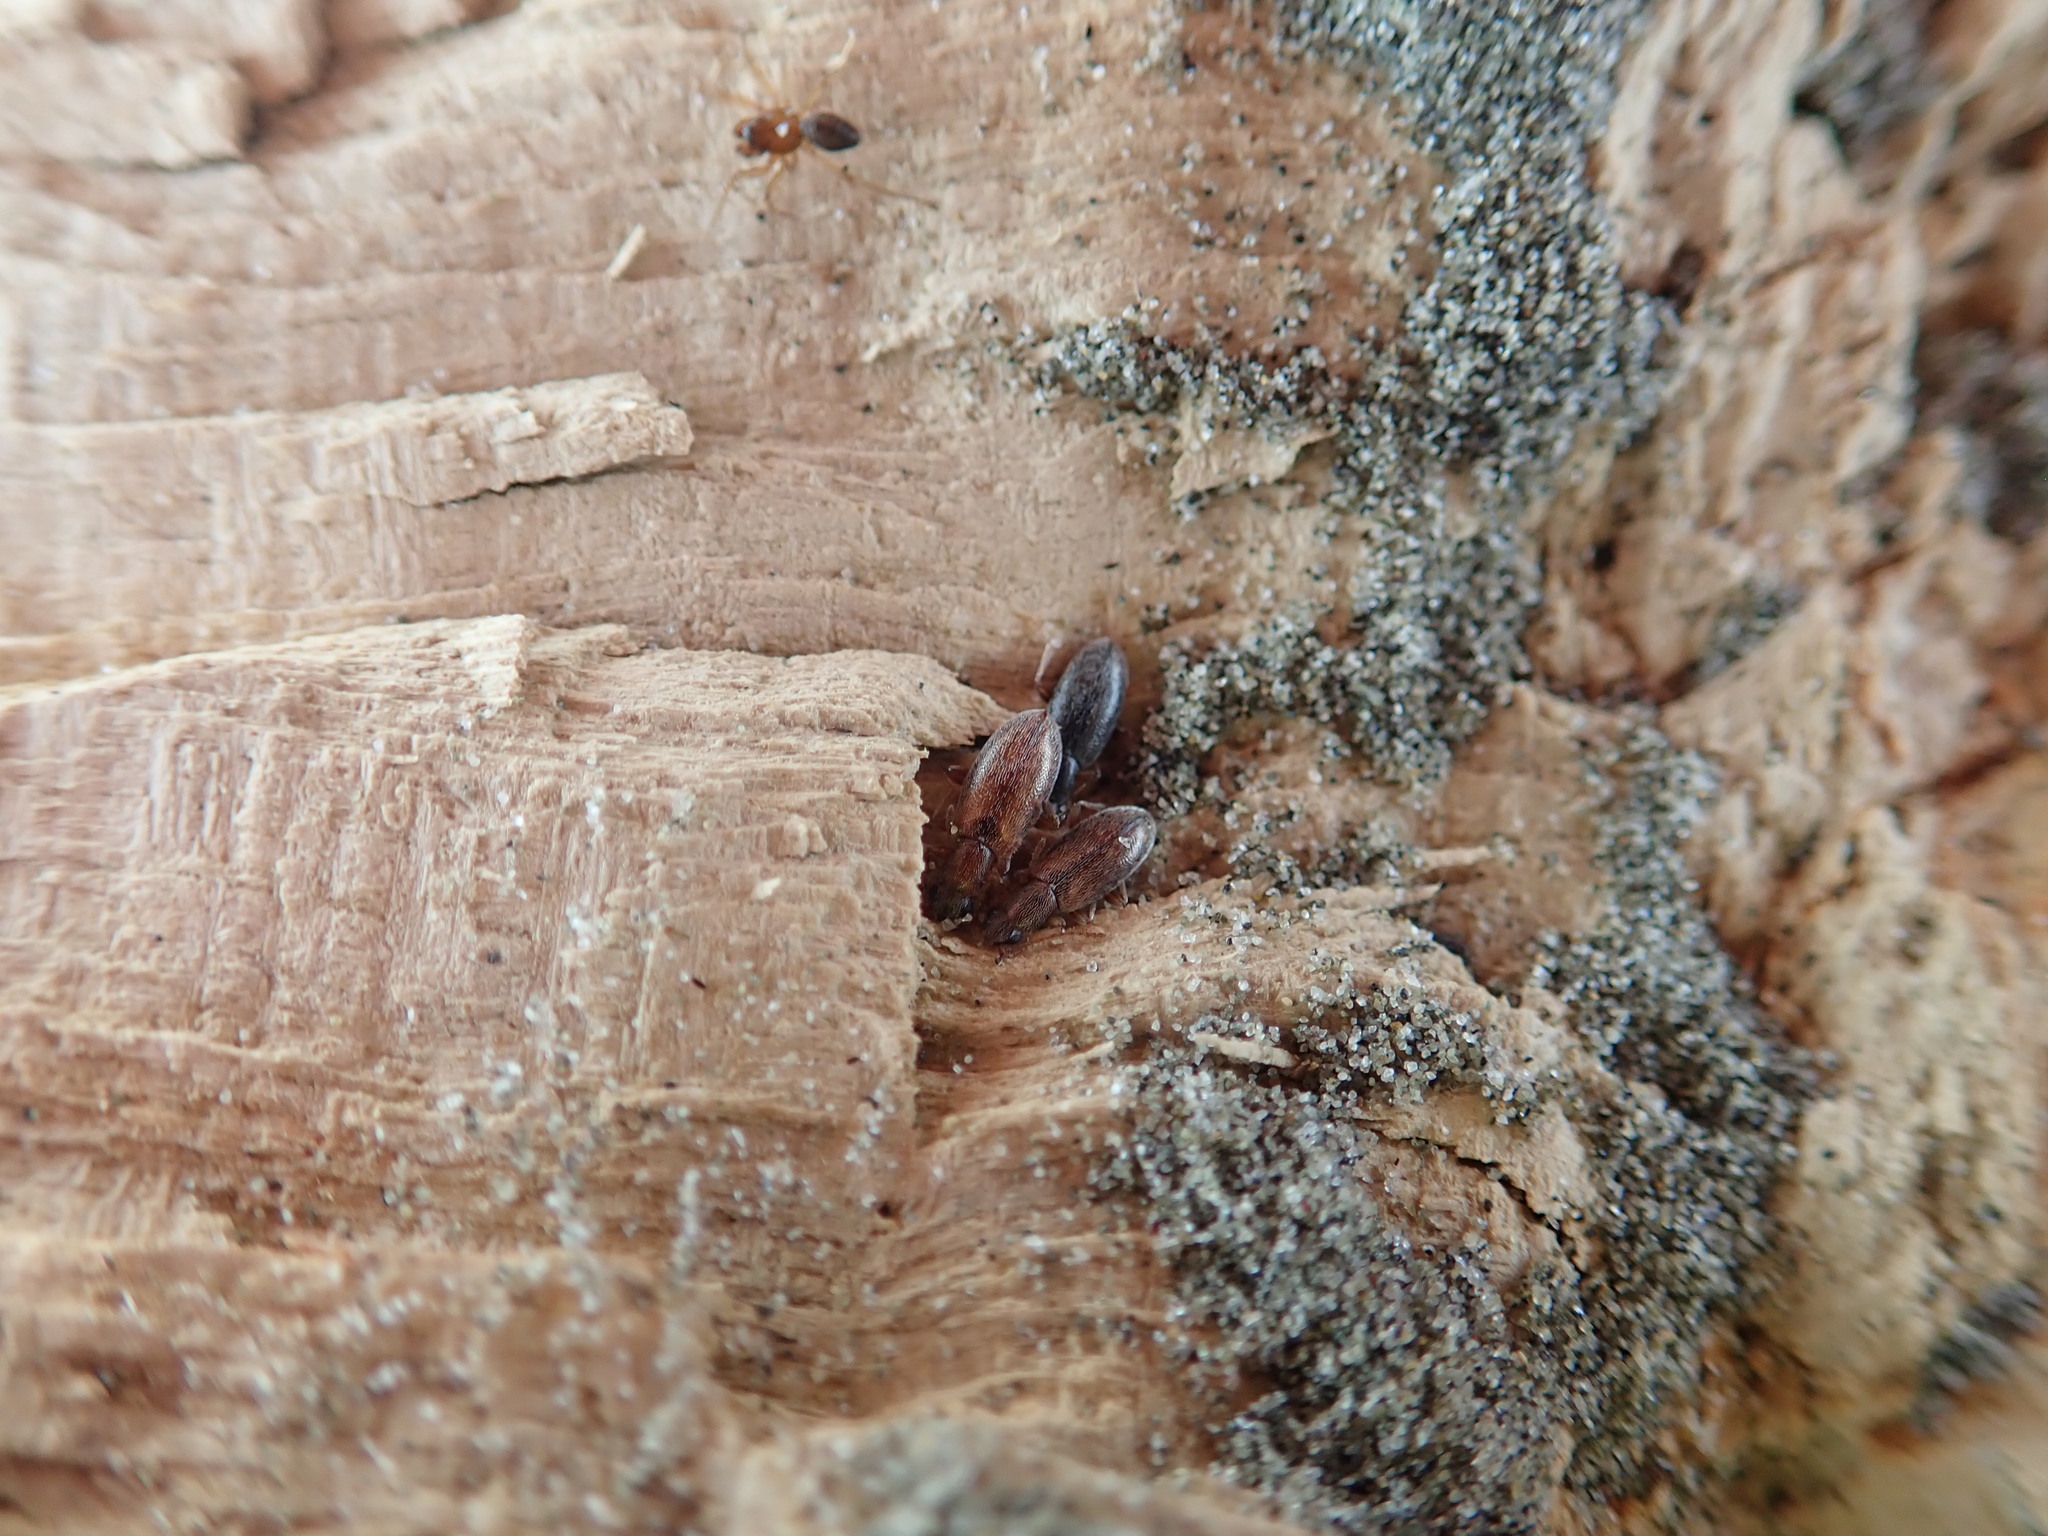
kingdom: Animalia
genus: Lagrioda
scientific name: Lagrioda brounii
